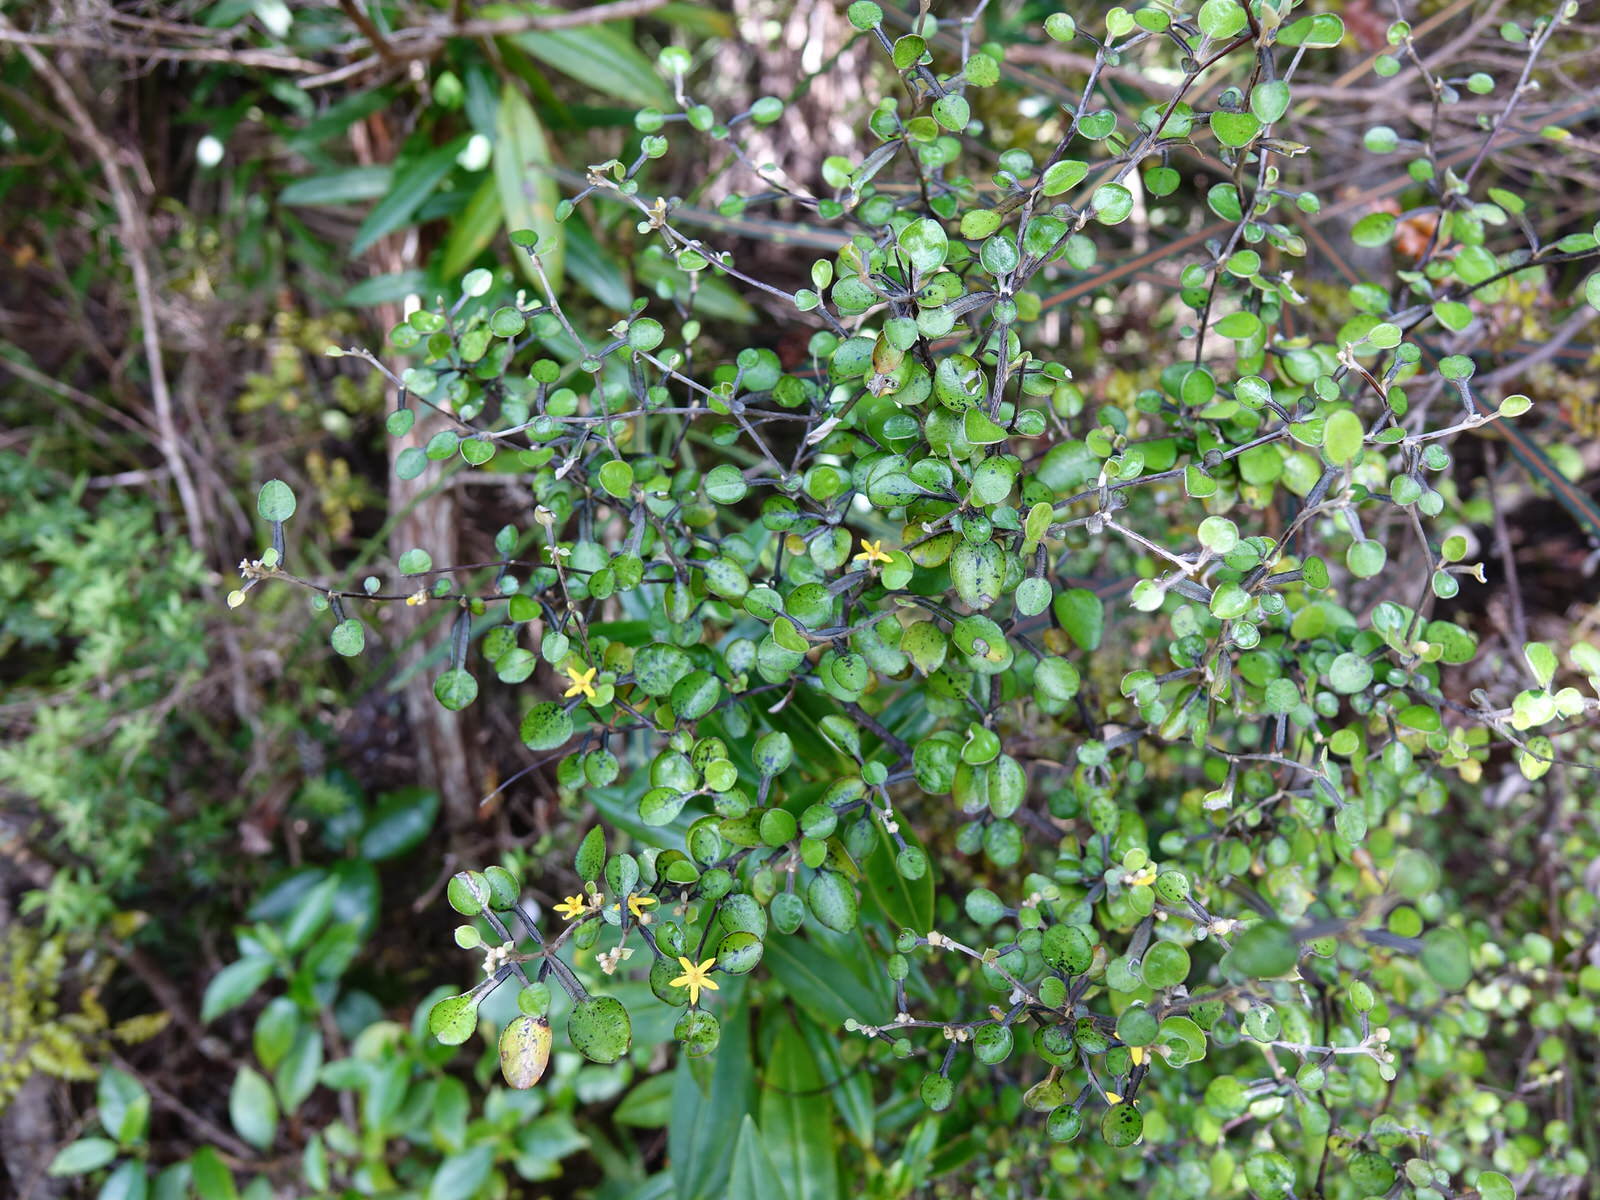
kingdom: Plantae
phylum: Tracheophyta
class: Magnoliopsida
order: Asterales
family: Argophyllaceae
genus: Corokia
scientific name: Corokia cotoneaster
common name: Wire nettingbush
